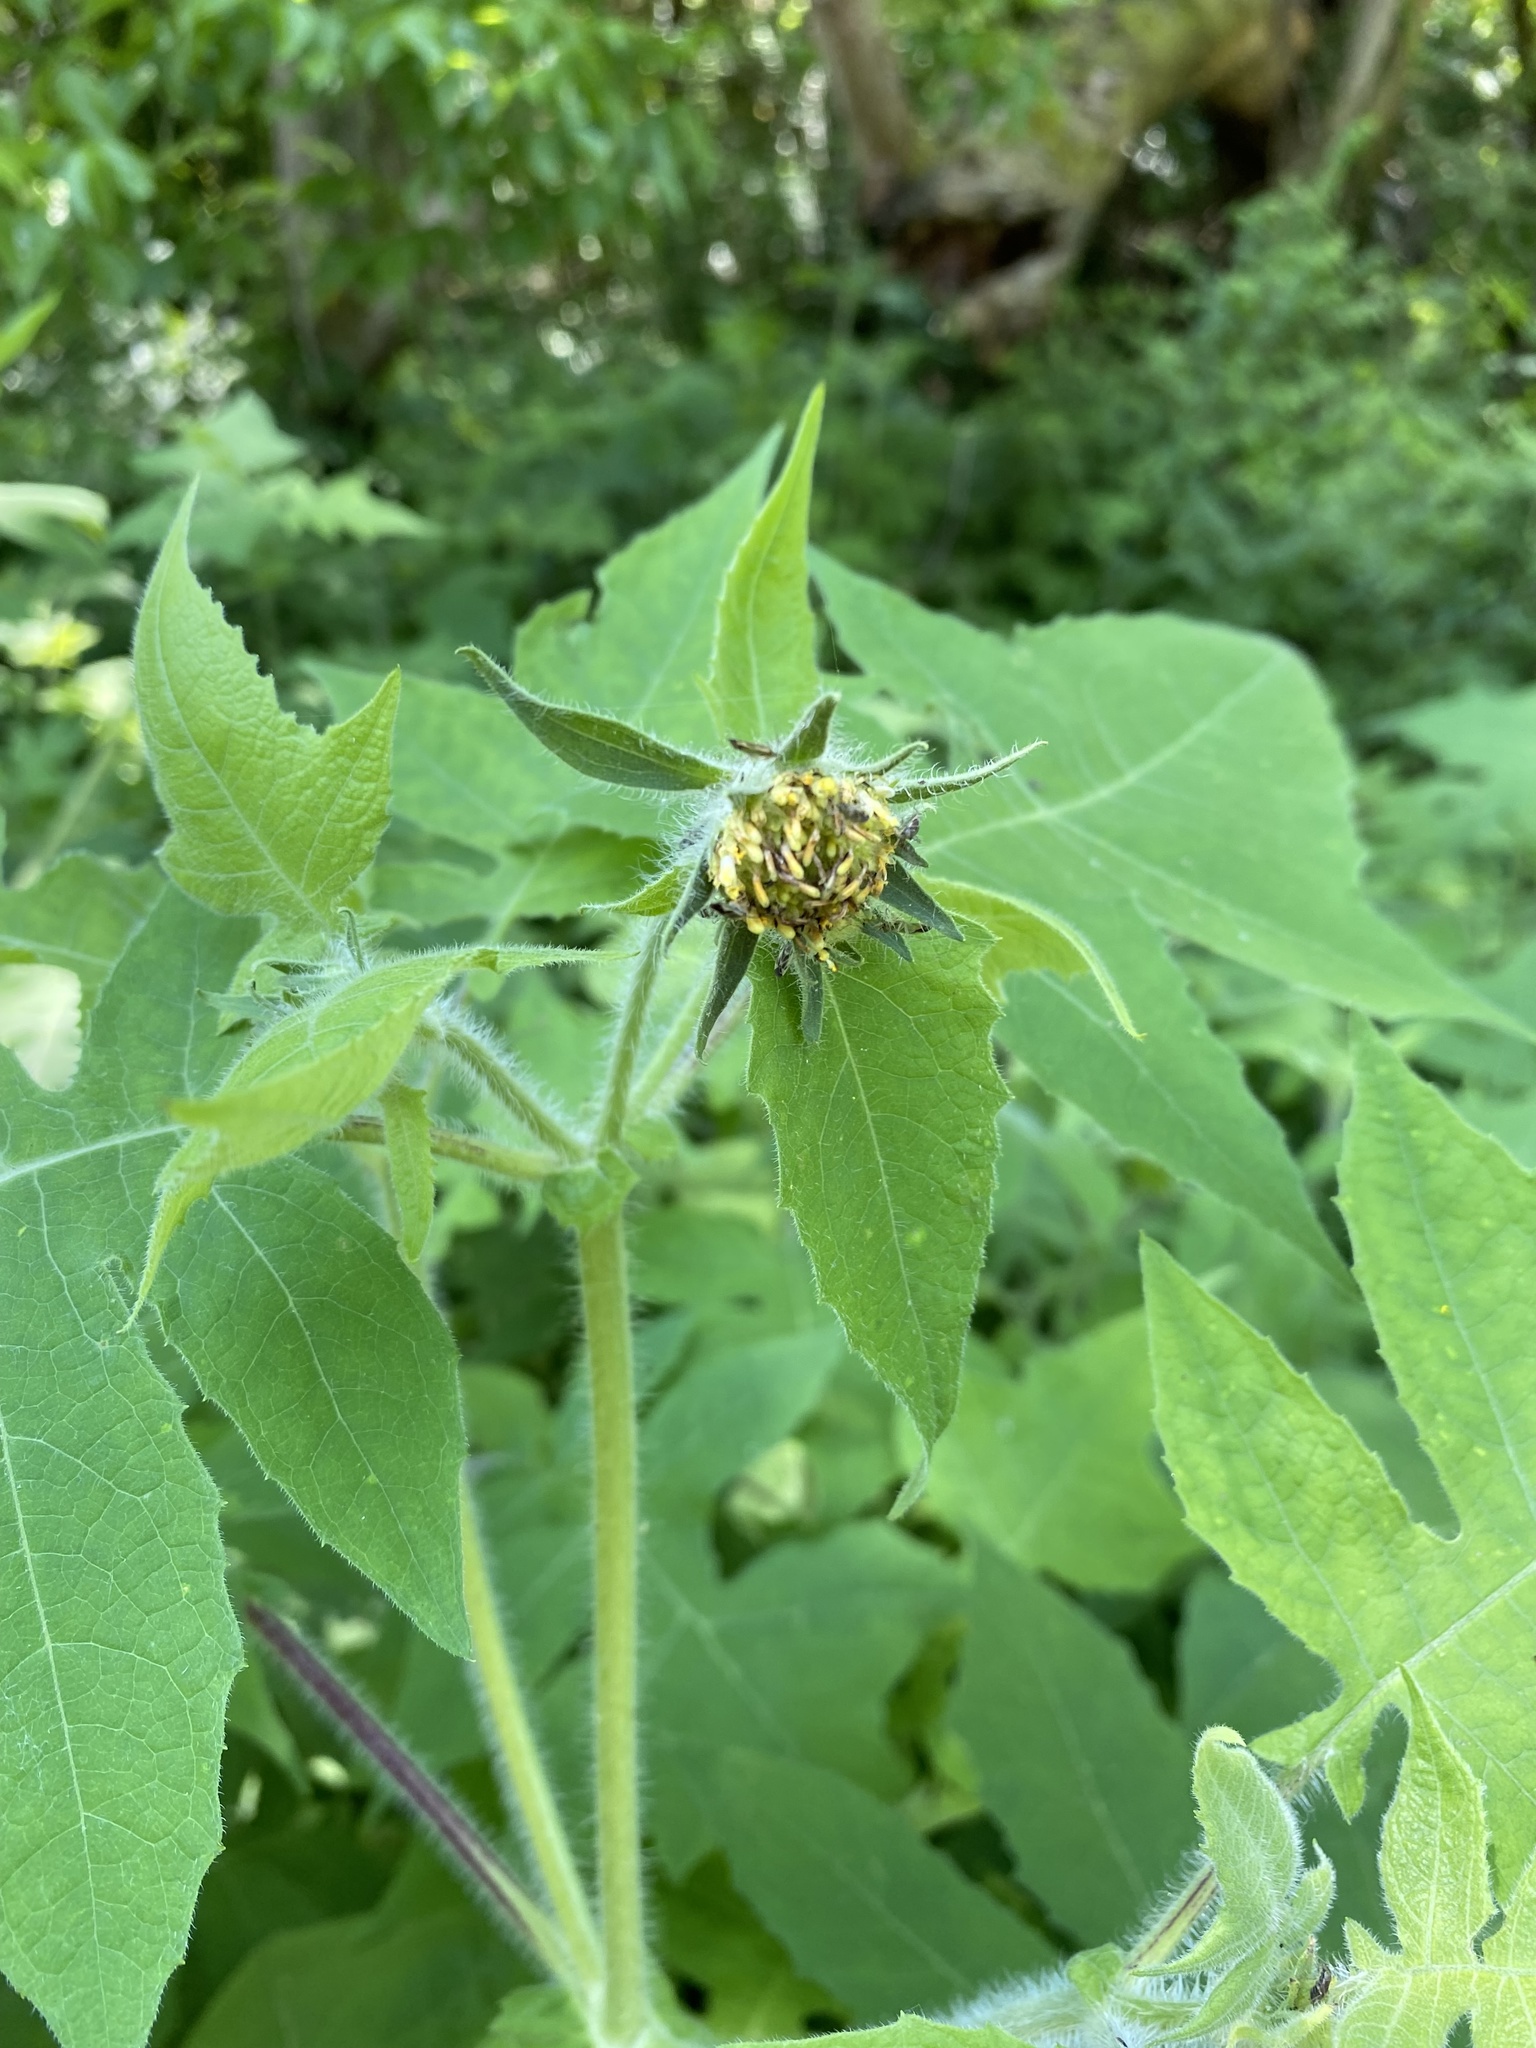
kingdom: Plantae
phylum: Tracheophyta
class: Magnoliopsida
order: Asterales
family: Asteraceae
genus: Polymnia
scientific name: Polymnia canadensis
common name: Pale-flowered leafcup
